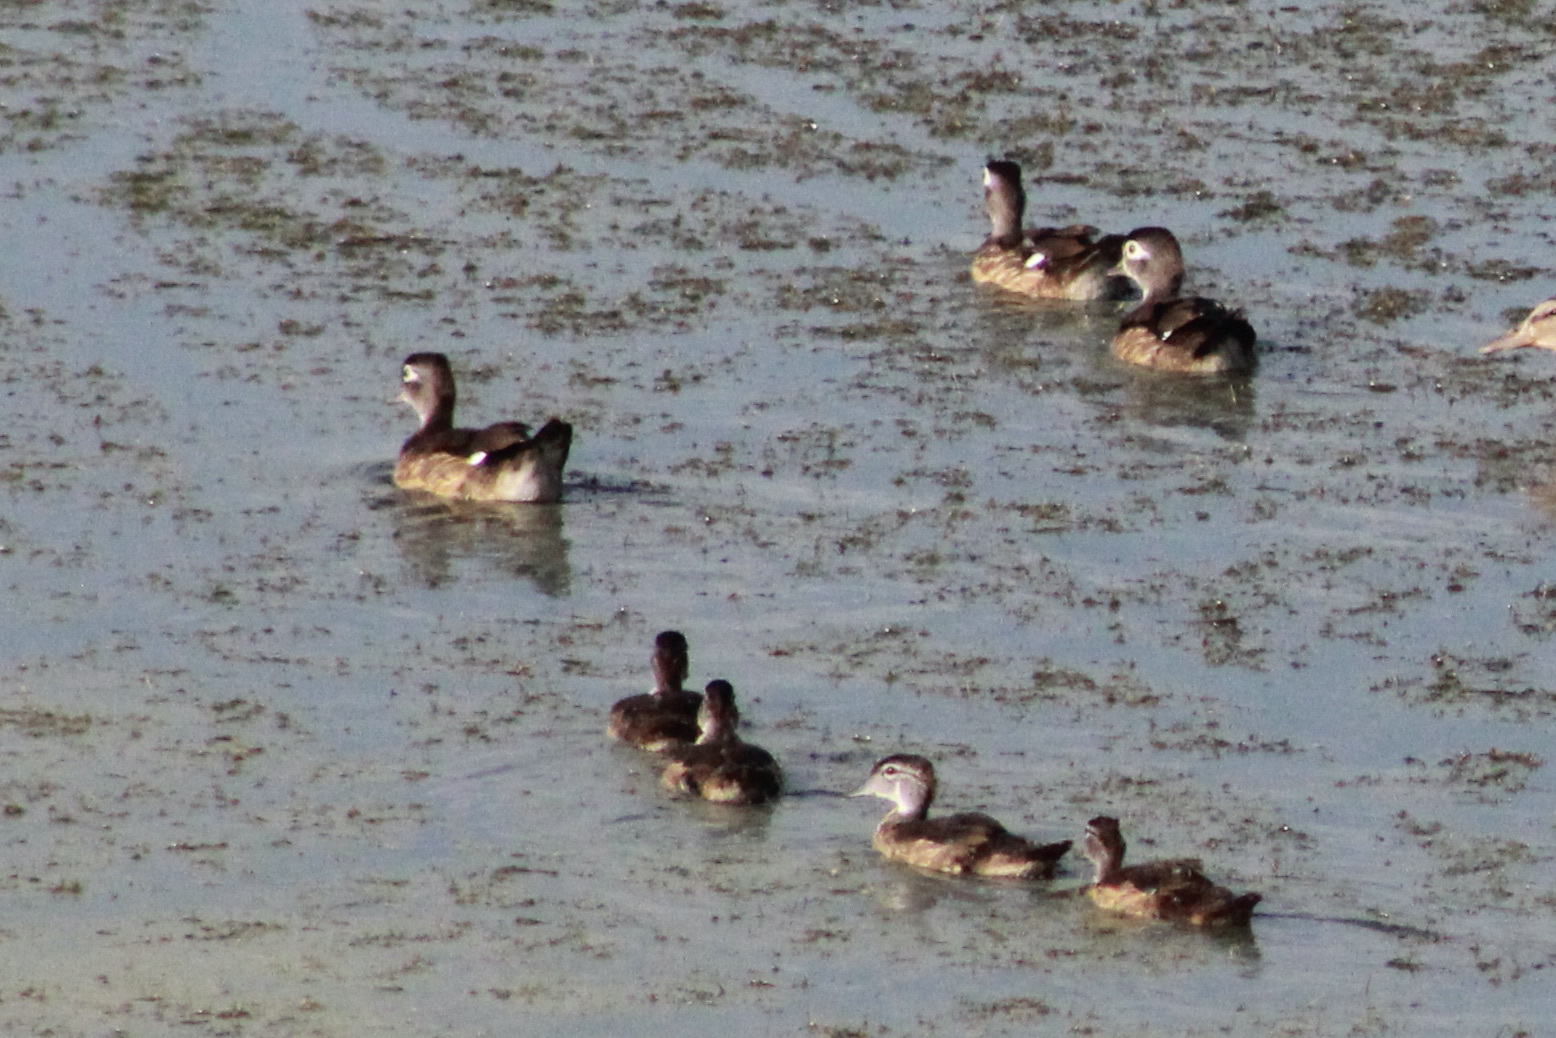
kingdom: Animalia
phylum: Chordata
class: Aves
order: Anseriformes
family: Anatidae
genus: Aix
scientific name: Aix sponsa
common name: Wood duck
